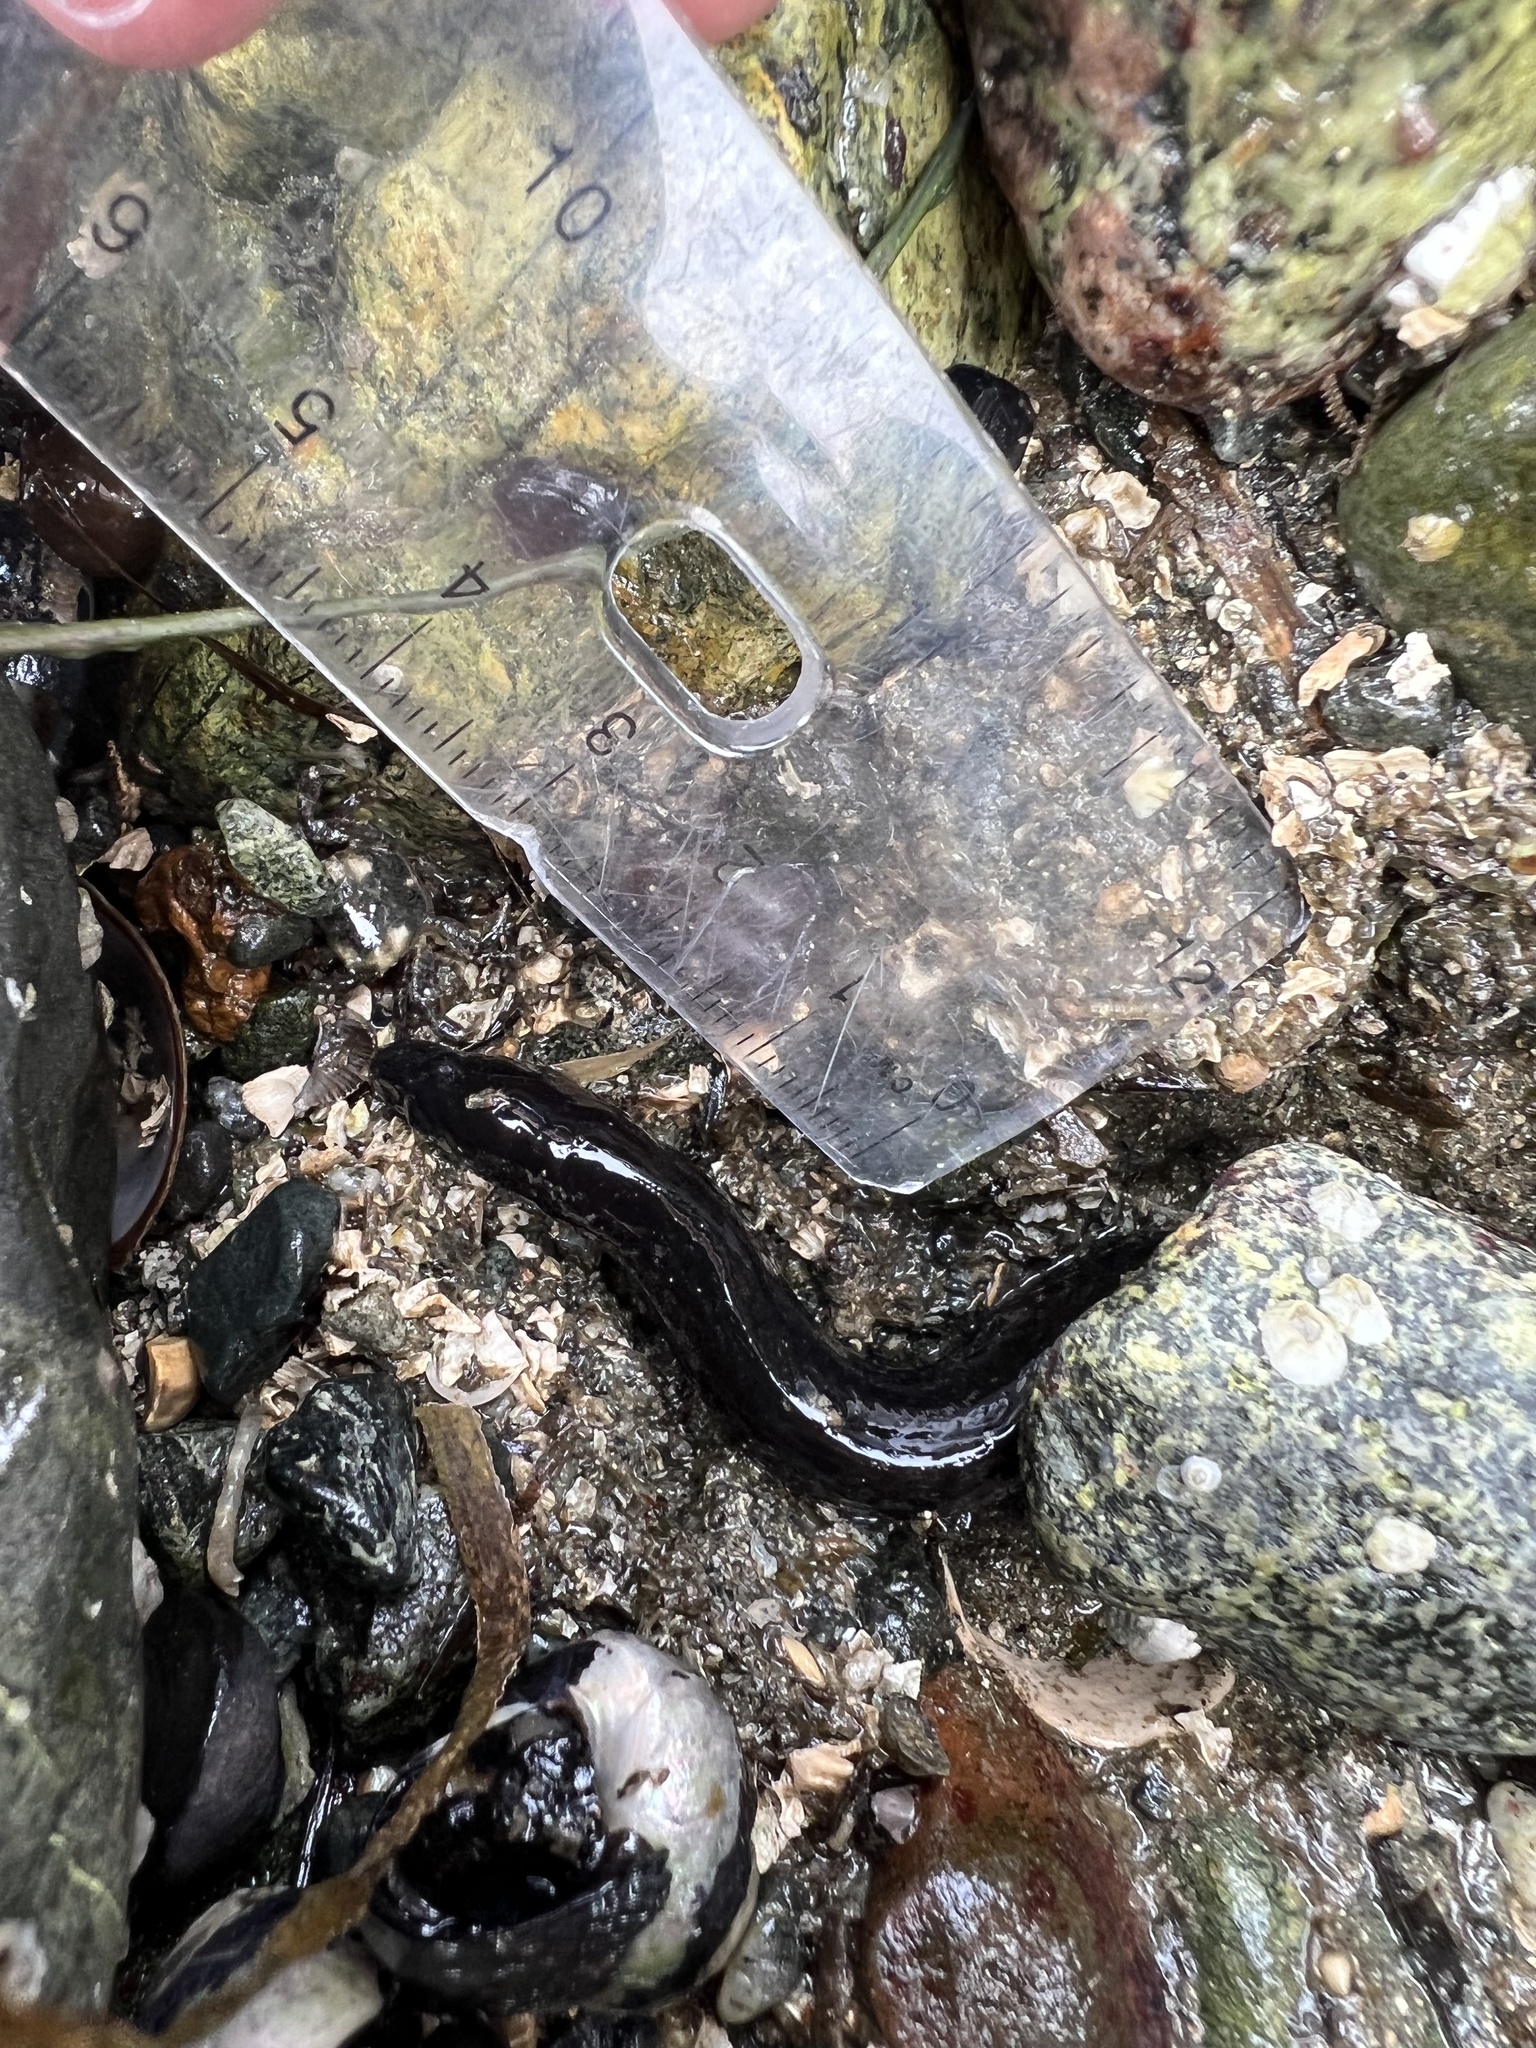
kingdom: Animalia
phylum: Chordata
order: Perciformes
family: Stichaeidae
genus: Xiphister
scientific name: Xiphister atropurpureus
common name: Black prickleback
